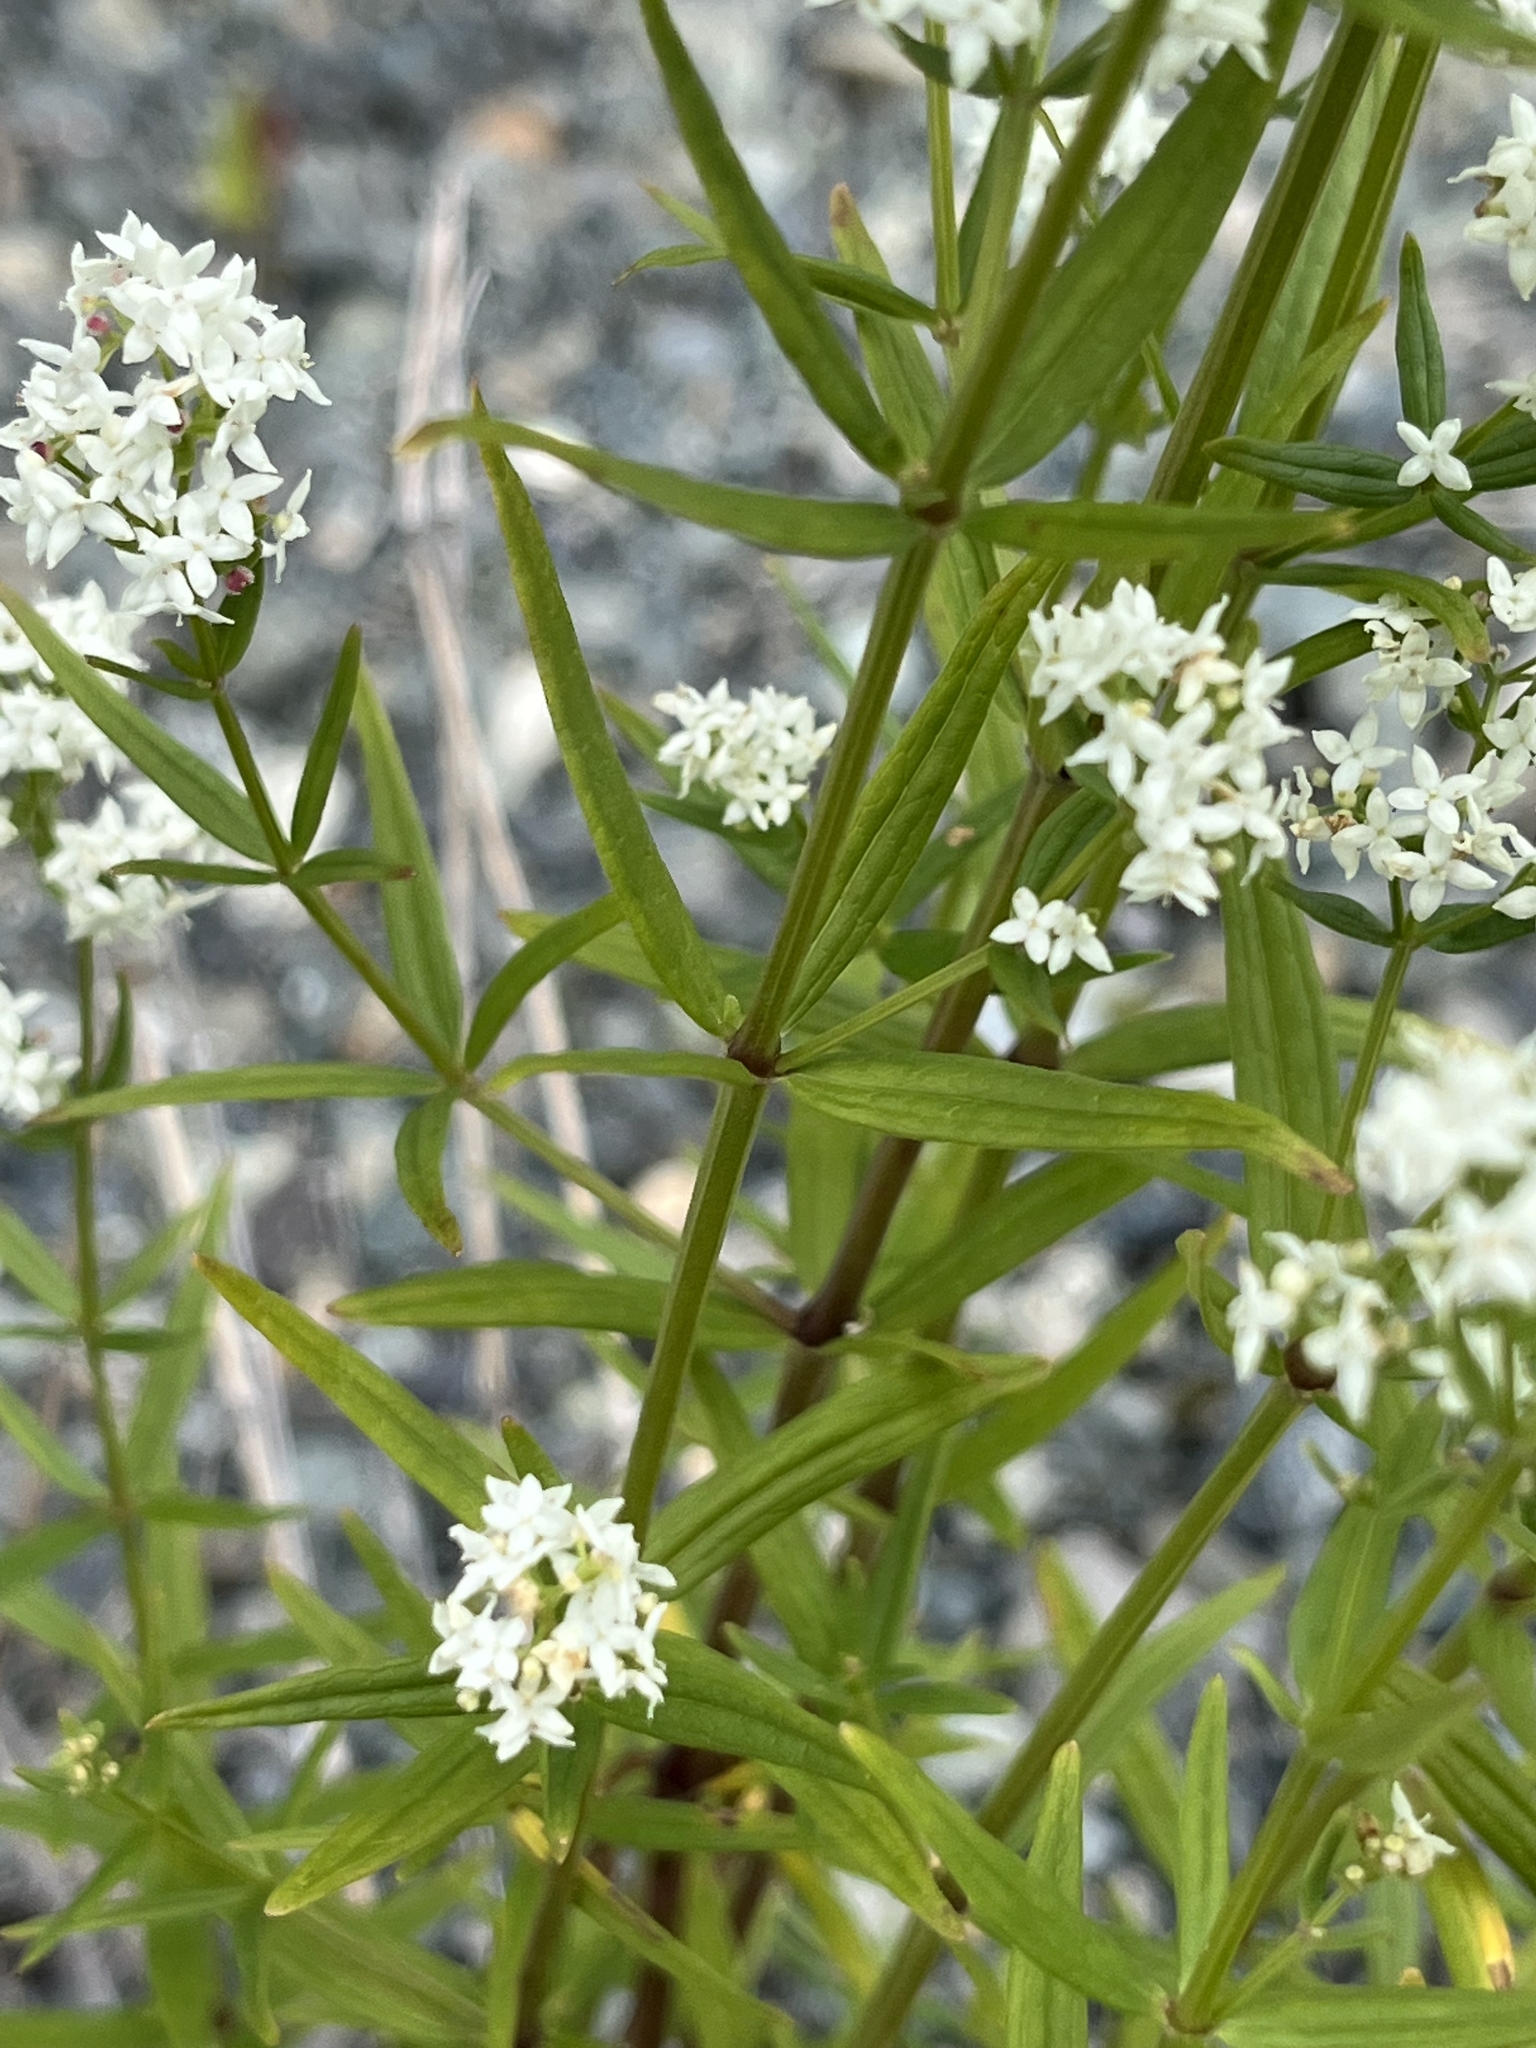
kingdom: Plantae
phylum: Tracheophyta
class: Magnoliopsida
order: Gentianales
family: Rubiaceae
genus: Galium
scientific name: Galium boreale
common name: Northern bedstraw
